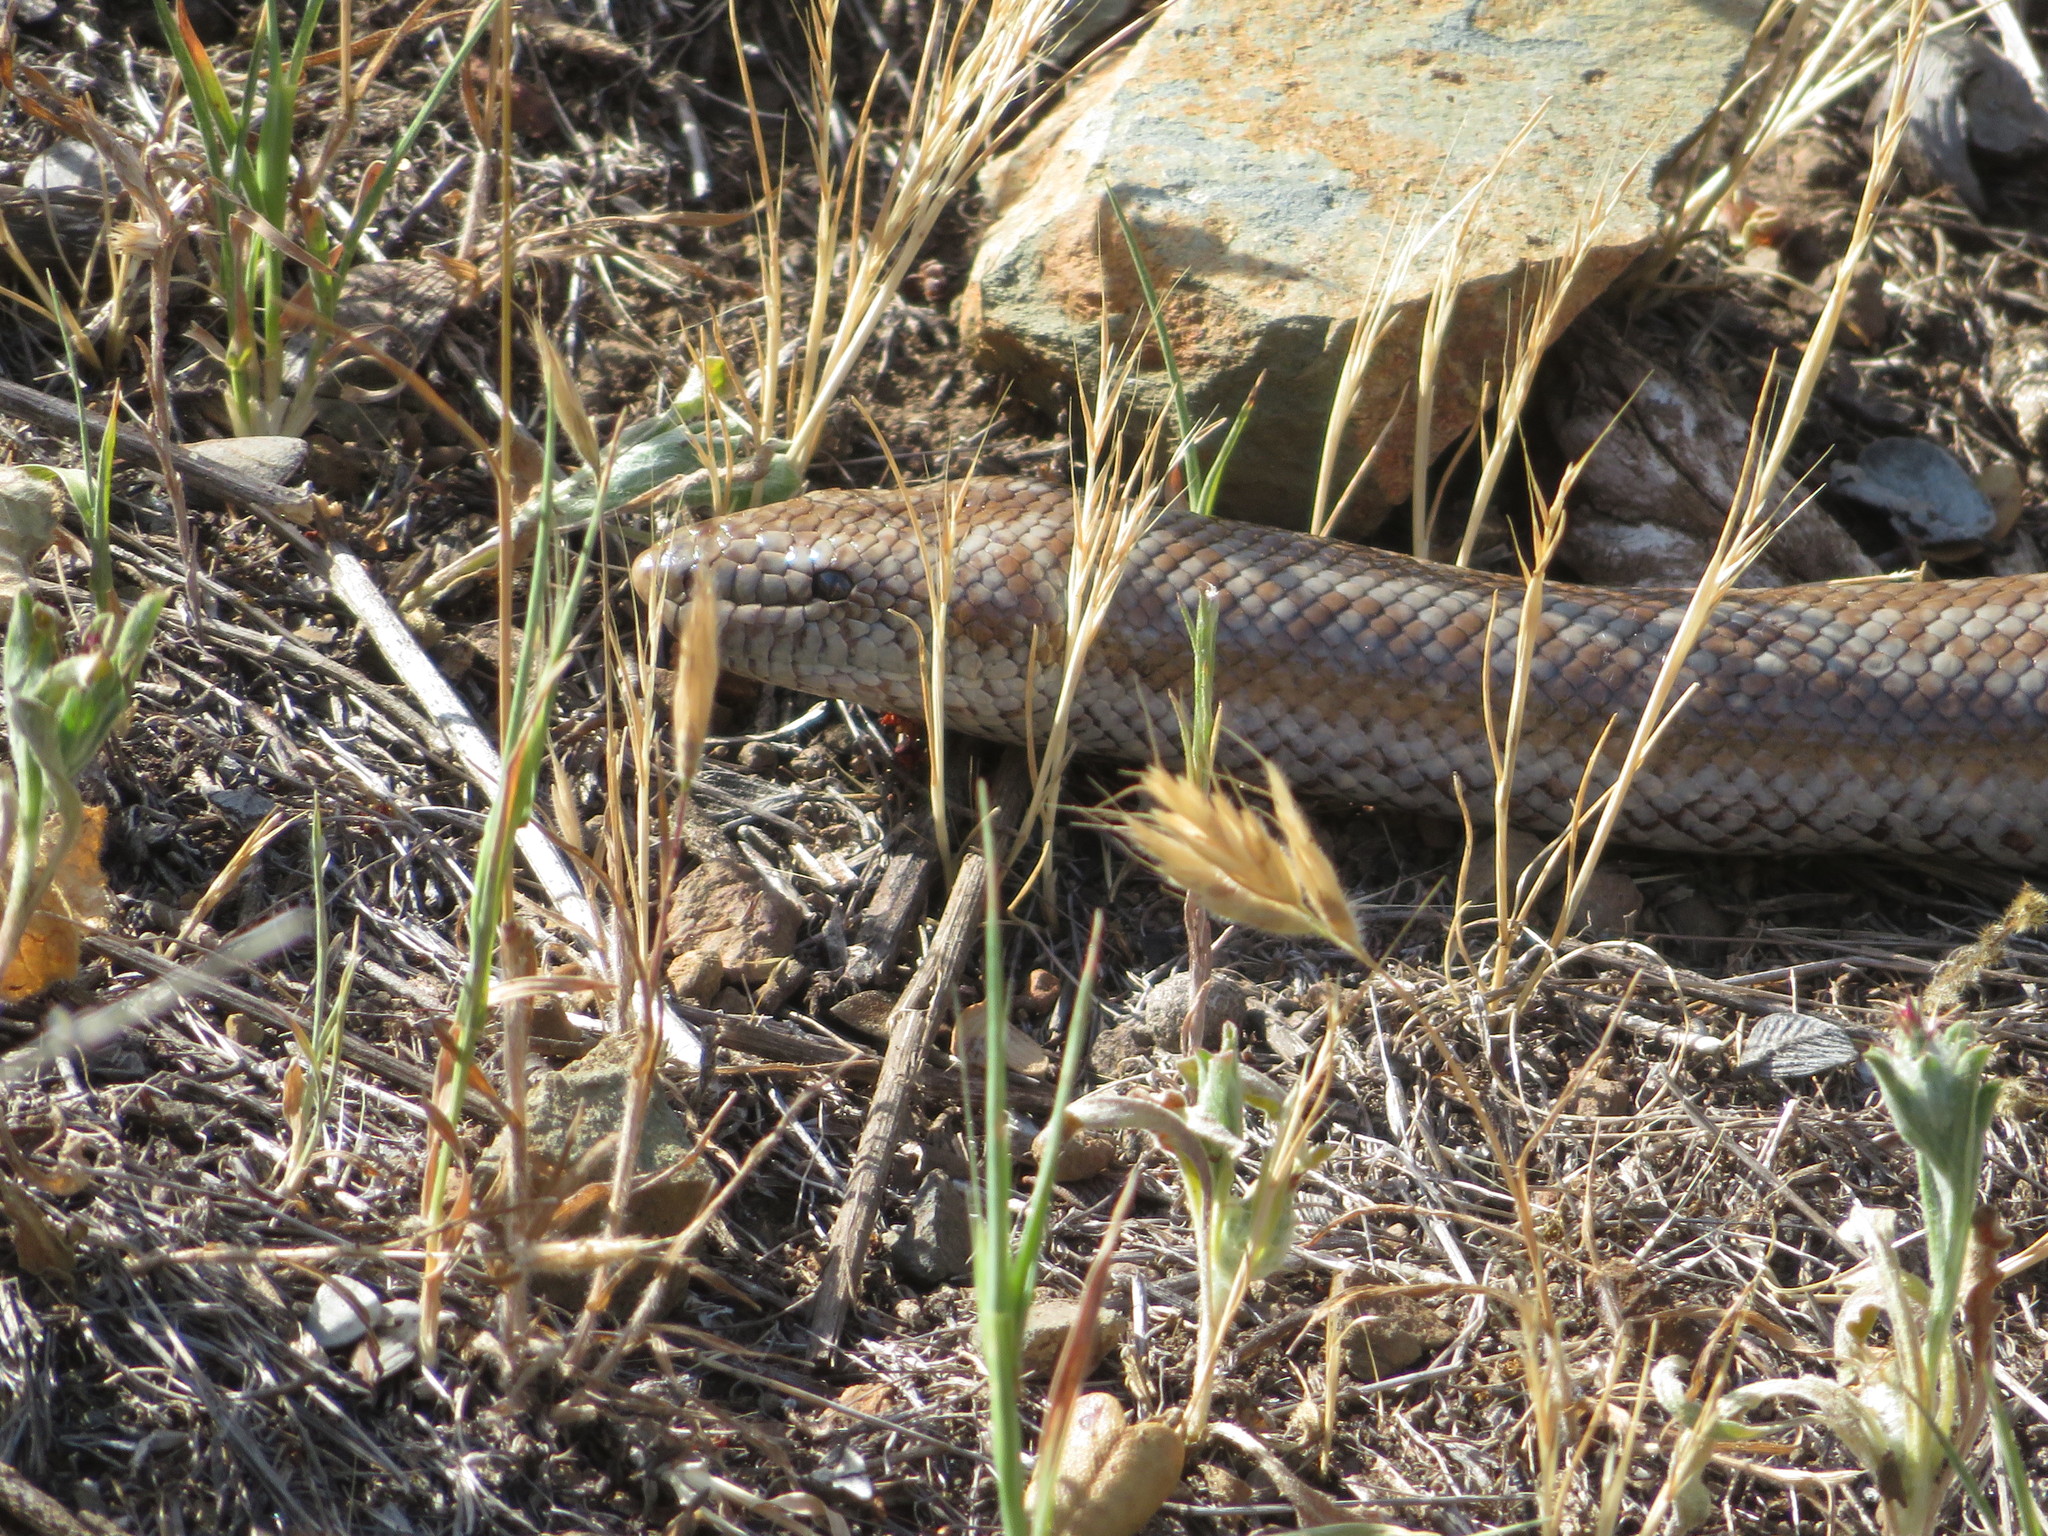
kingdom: Animalia
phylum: Chordata
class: Squamata
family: Boidae
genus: Lichanura
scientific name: Lichanura orcutti
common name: Northern three-lined boa
